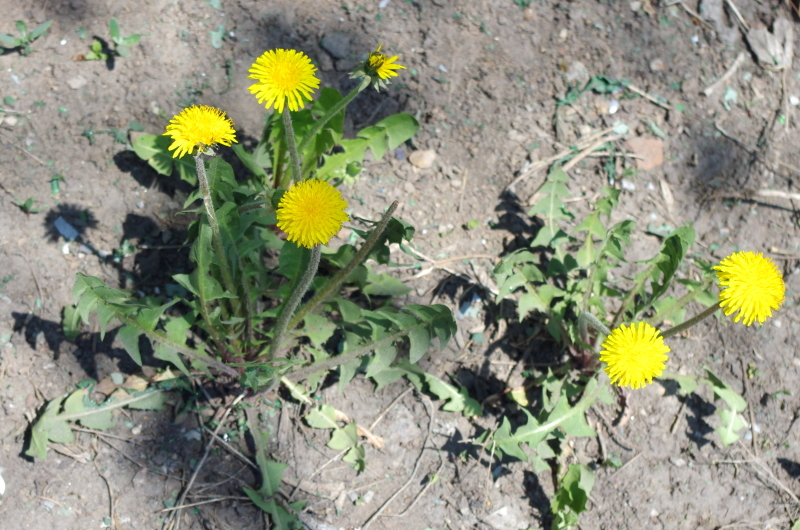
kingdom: Plantae
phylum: Tracheophyta
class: Magnoliopsida
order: Asterales
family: Asteraceae
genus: Taraxacum
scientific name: Taraxacum officinale
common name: Common dandelion
